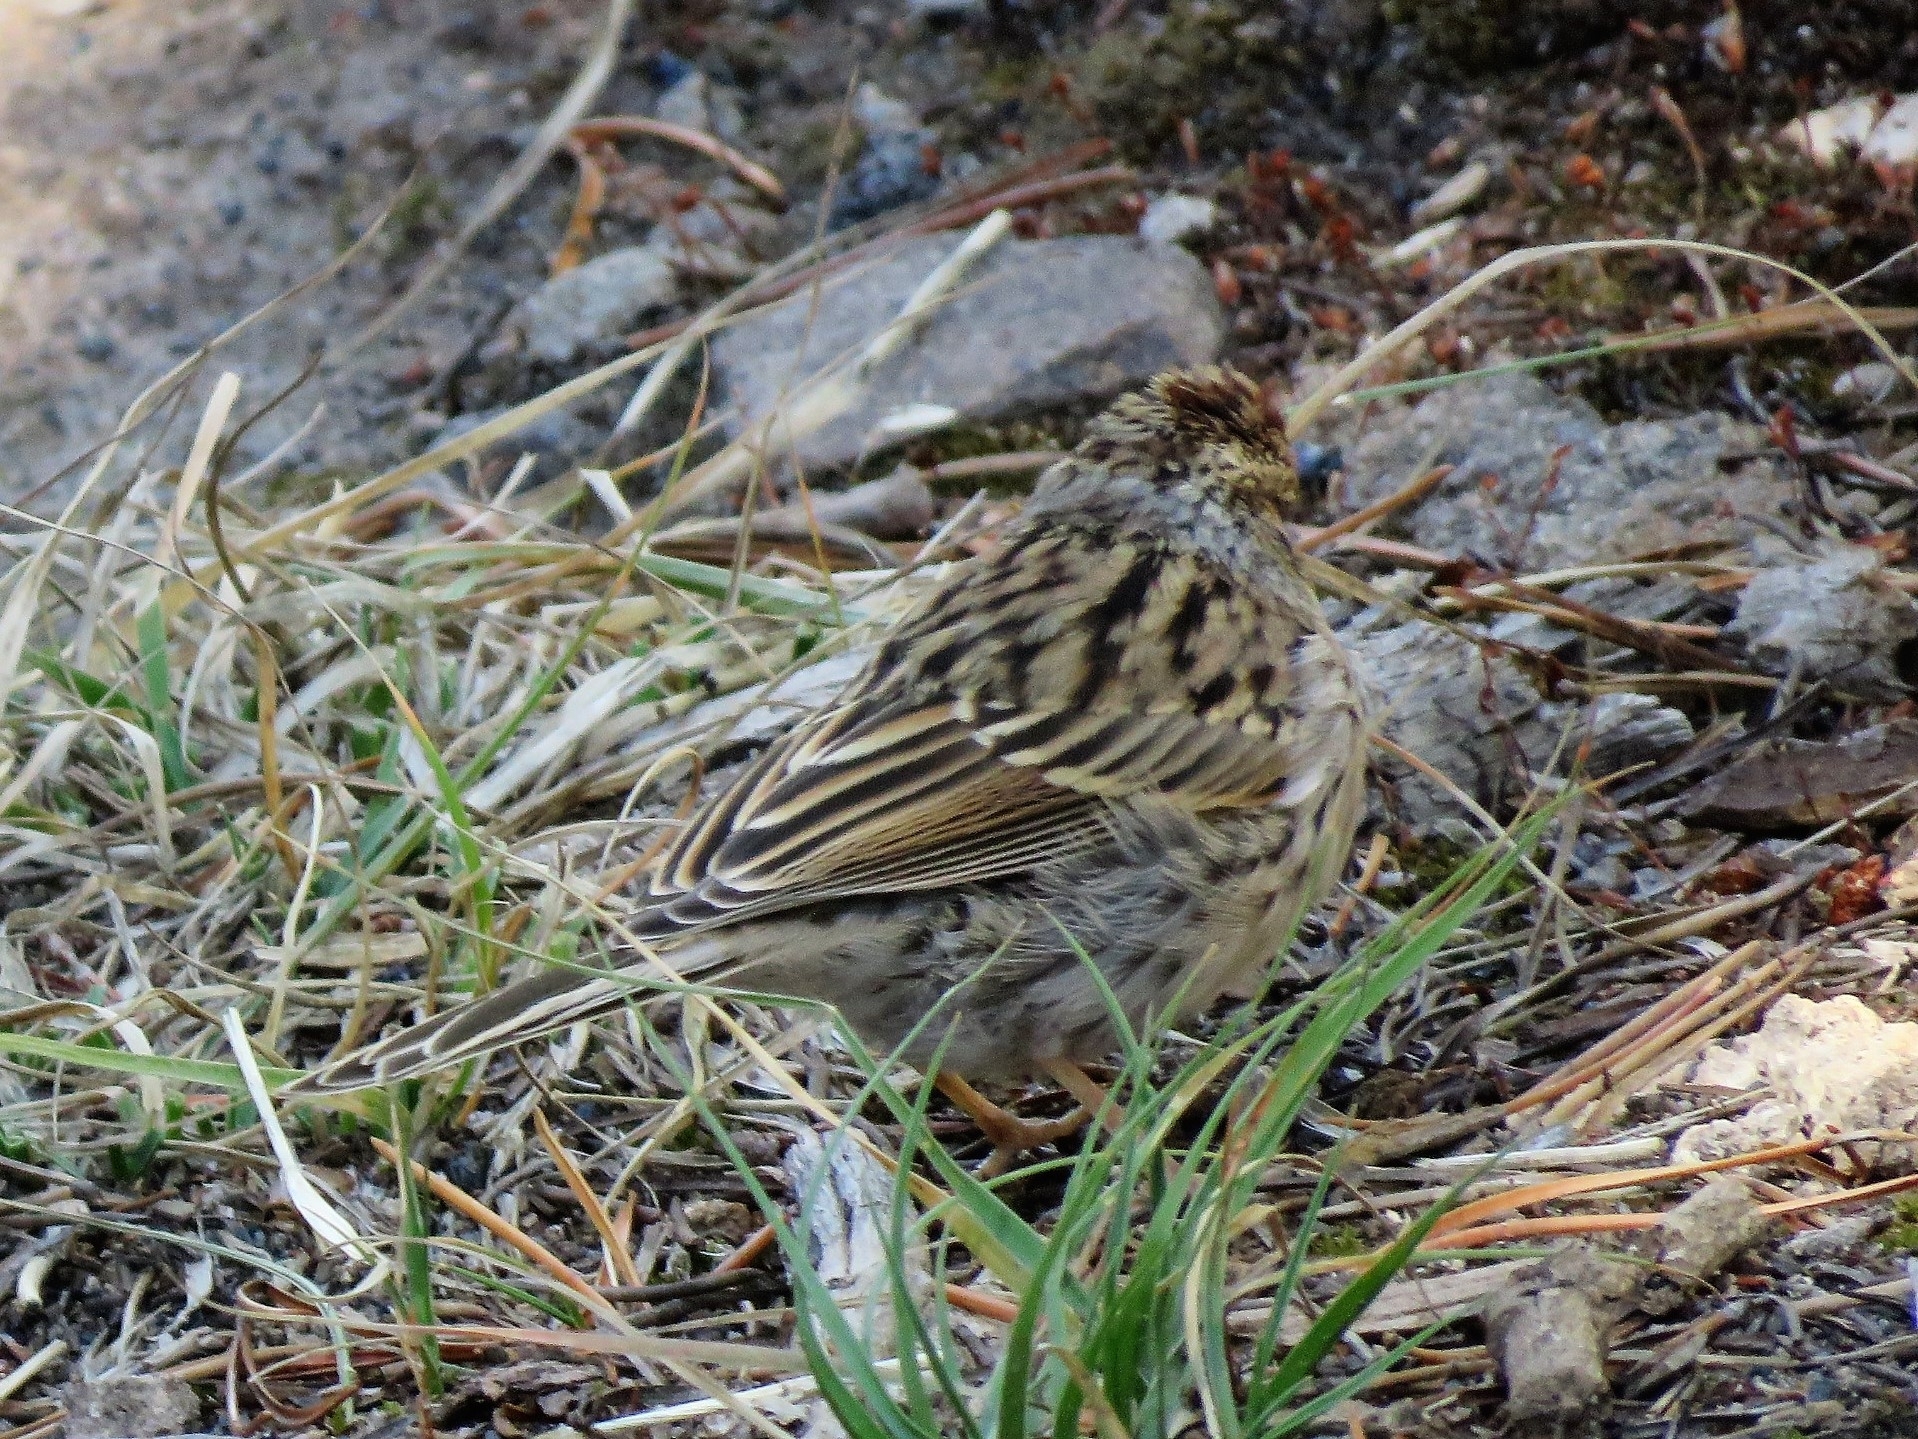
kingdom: Animalia
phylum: Chordata
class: Aves
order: Passeriformes
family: Passerellidae
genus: Spizella
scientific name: Spizella passerina
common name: Chipping sparrow
